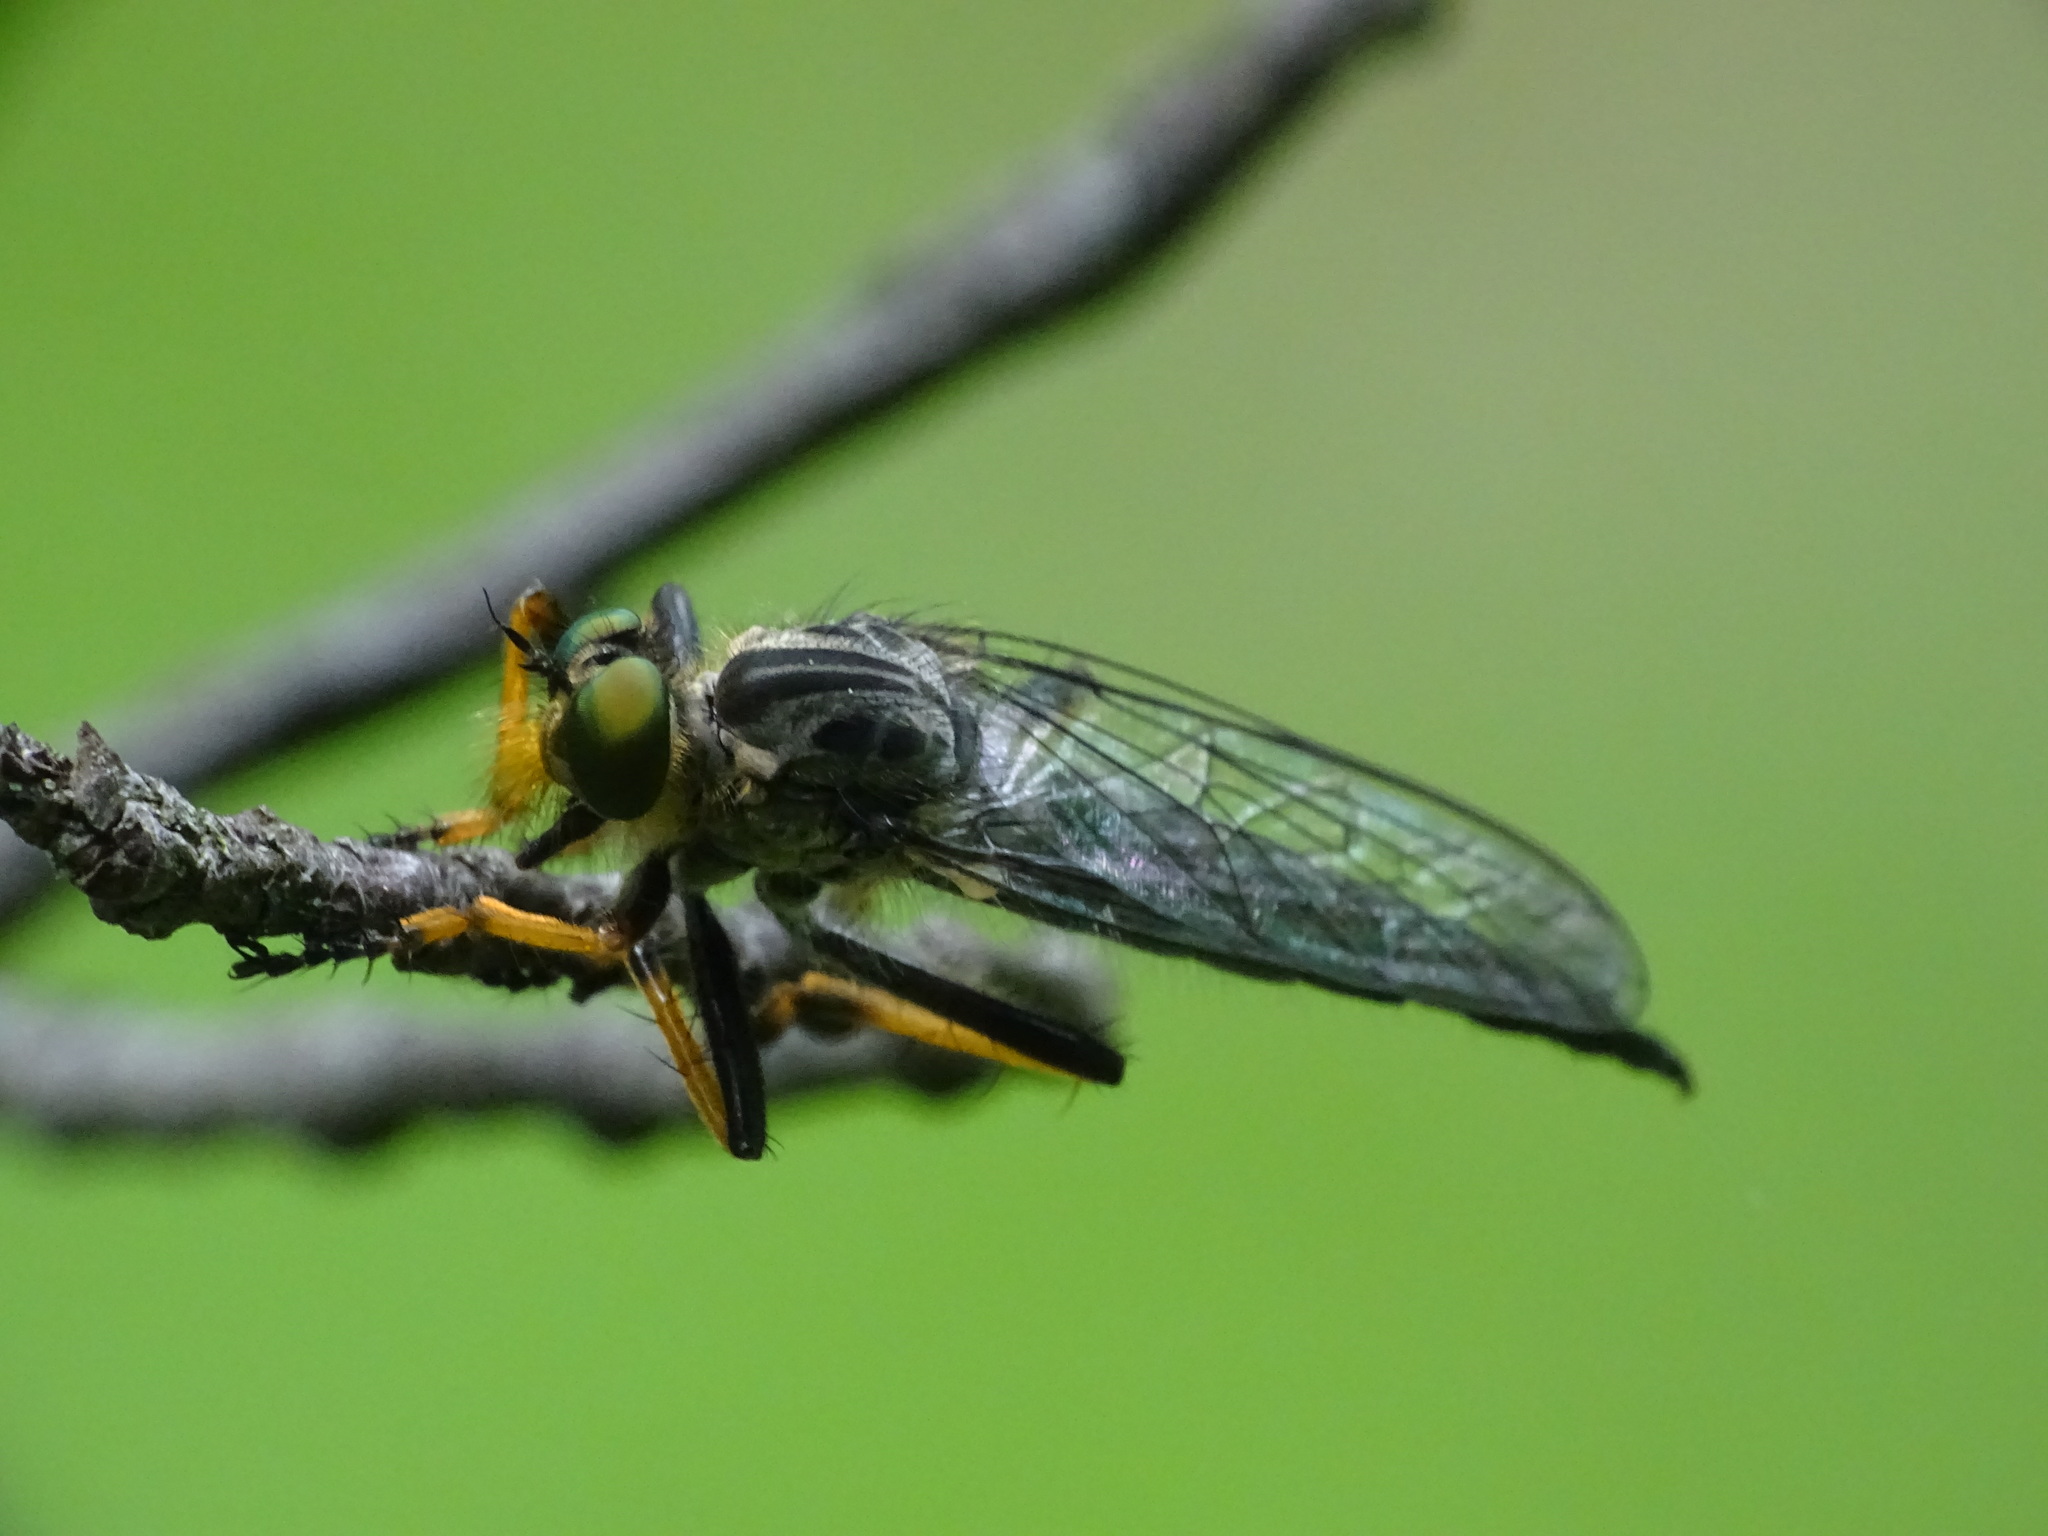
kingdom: Animalia
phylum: Arthropoda
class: Insecta
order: Diptera
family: Asilidae
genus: Neoitamus
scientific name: Neoitamus orphne
